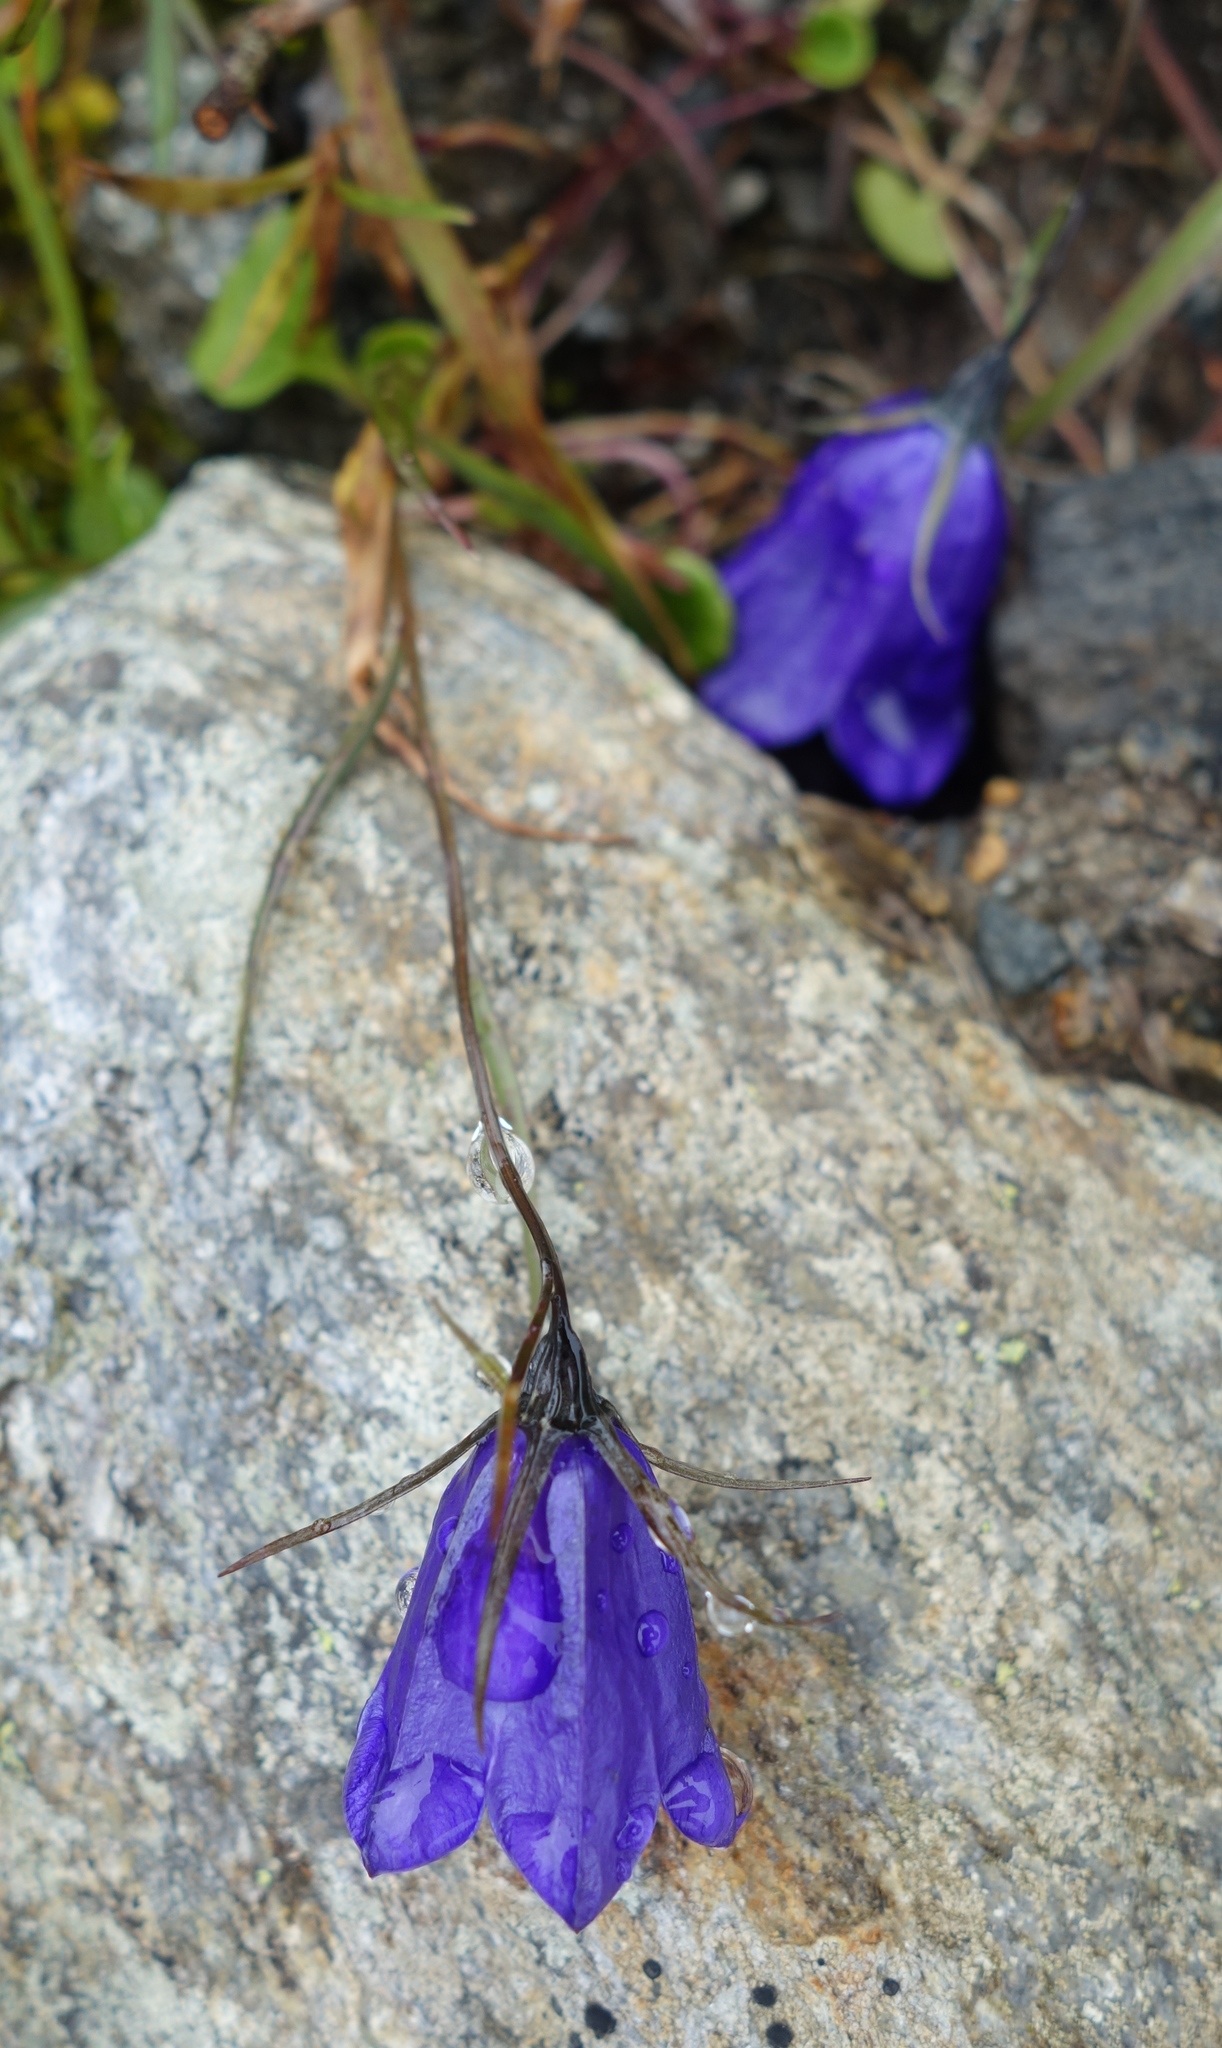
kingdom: Plantae
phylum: Tracheophyta
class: Magnoliopsida
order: Asterales
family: Campanulaceae
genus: Campanula
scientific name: Campanula scheuchzeri
